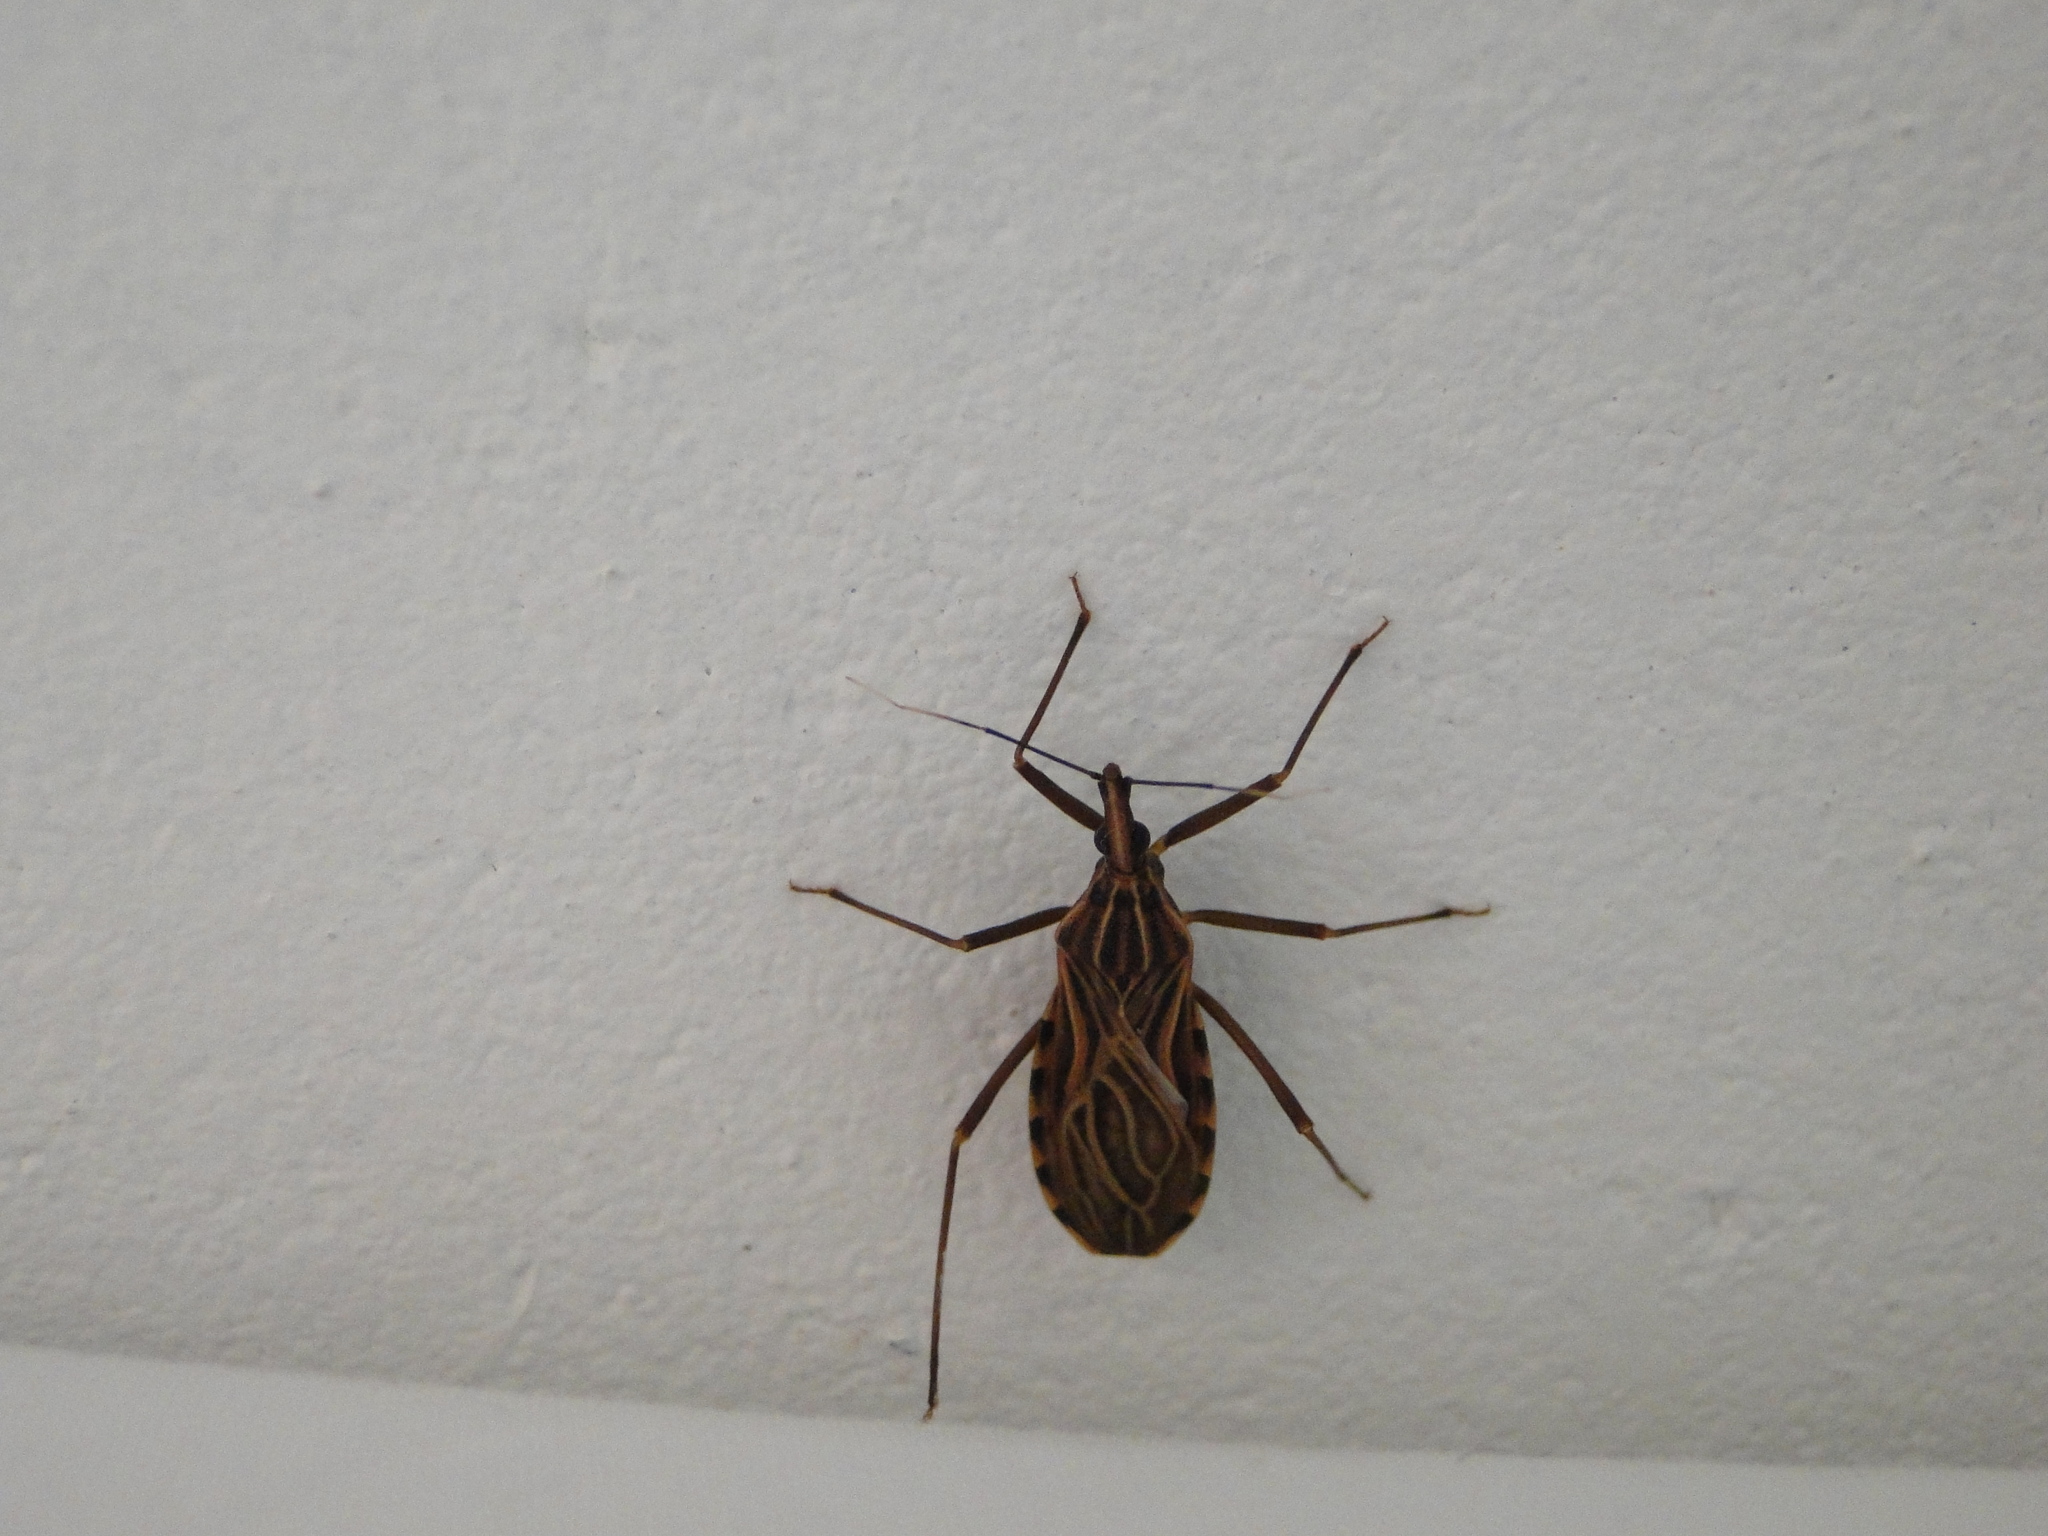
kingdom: Animalia
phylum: Arthropoda
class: Insecta
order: Hemiptera
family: Reduviidae
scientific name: Reduviidae
